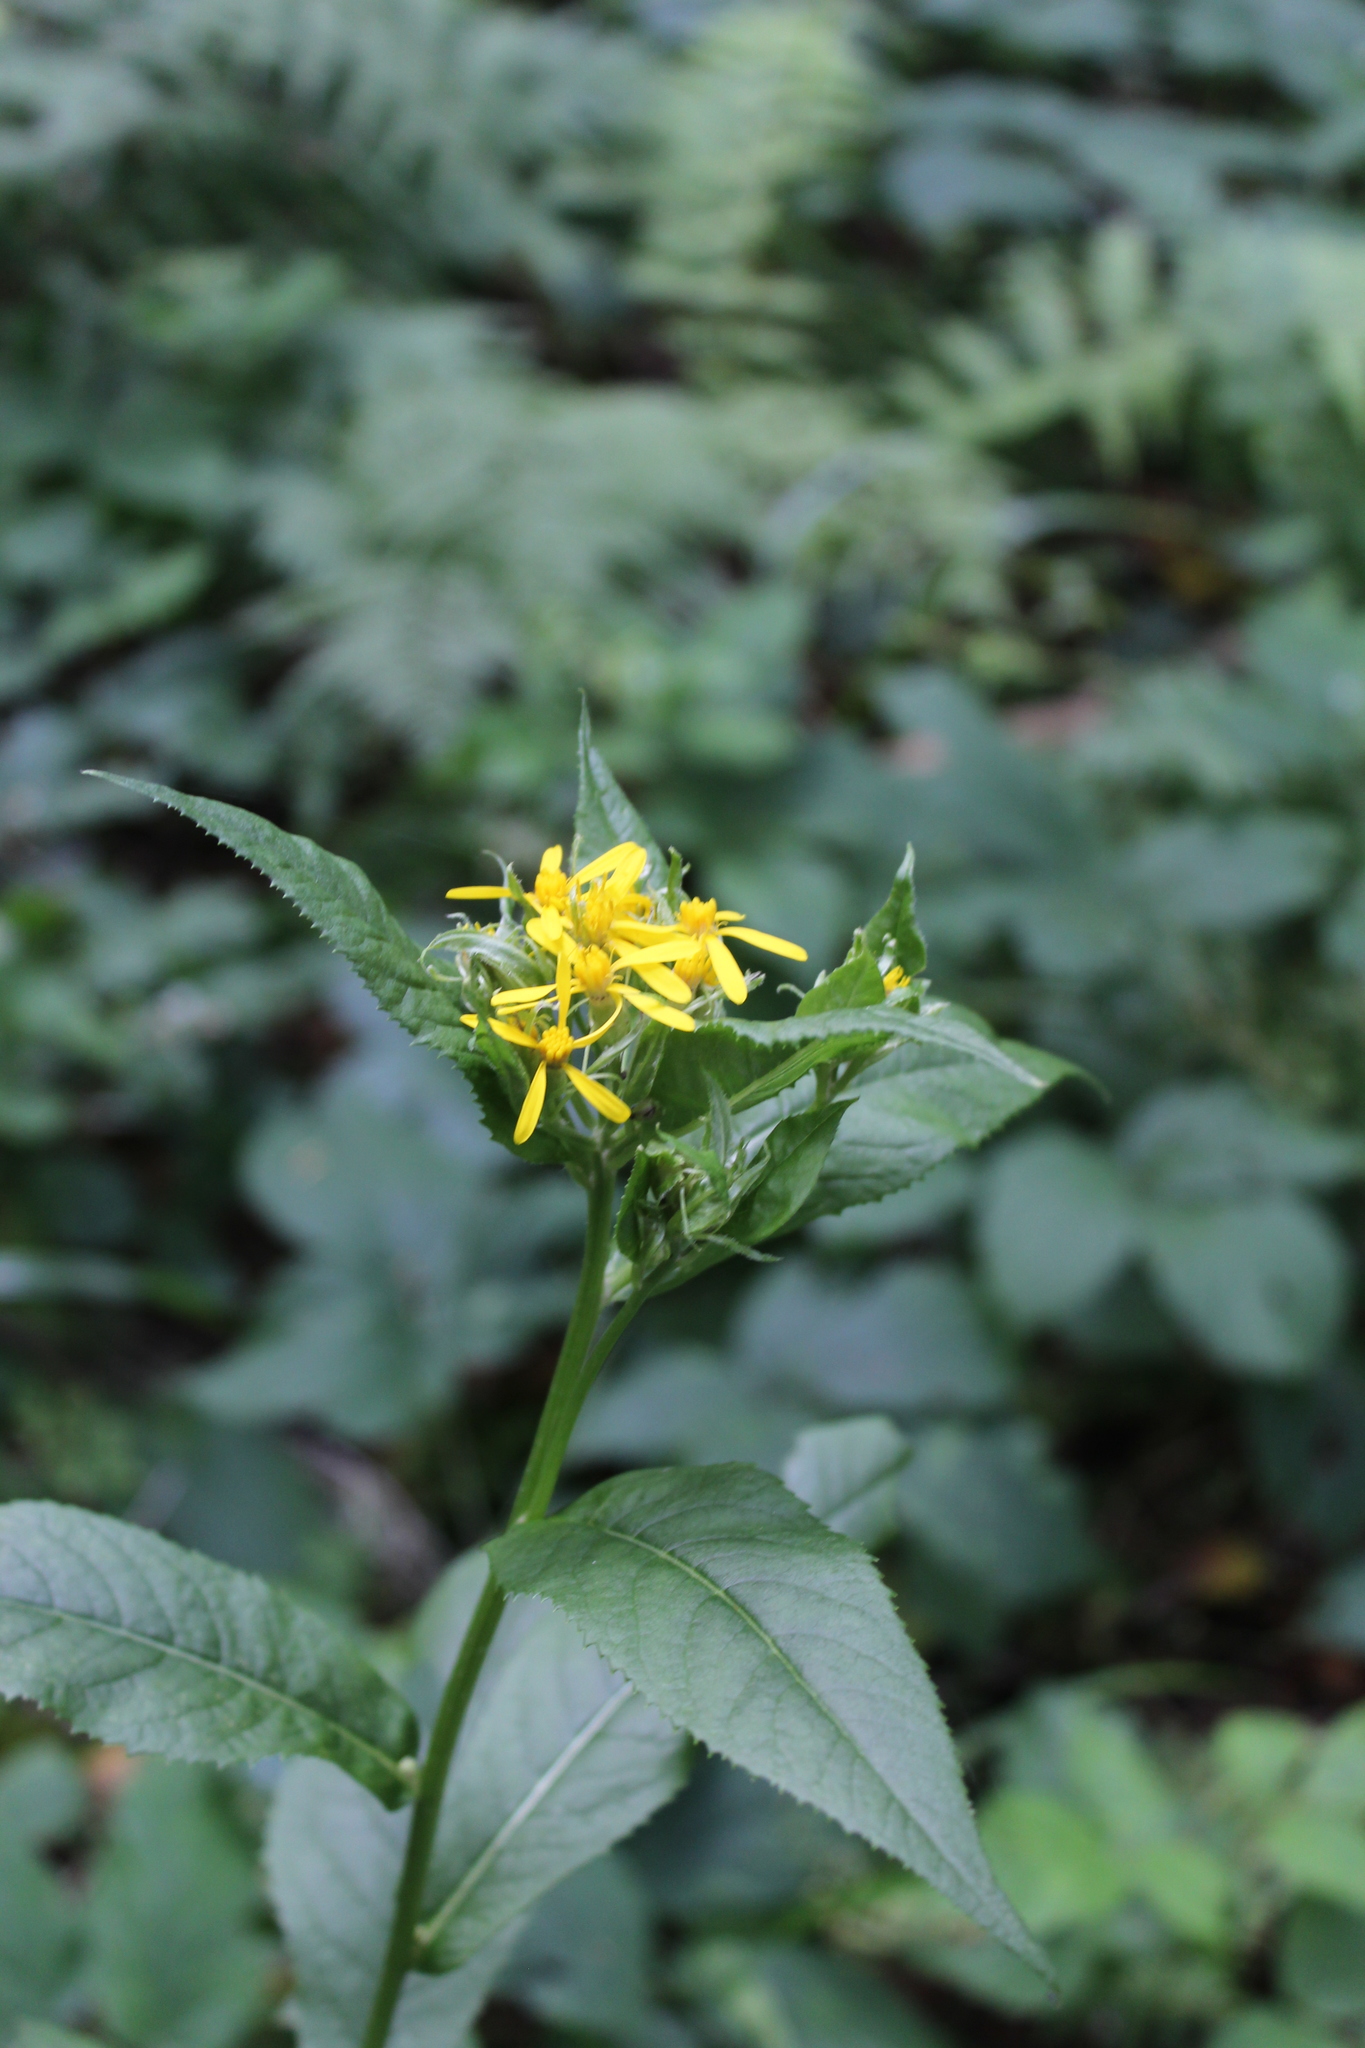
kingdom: Plantae
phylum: Tracheophyta
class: Magnoliopsida
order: Asterales
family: Asteraceae
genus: Senecio
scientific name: Senecio propinquus
